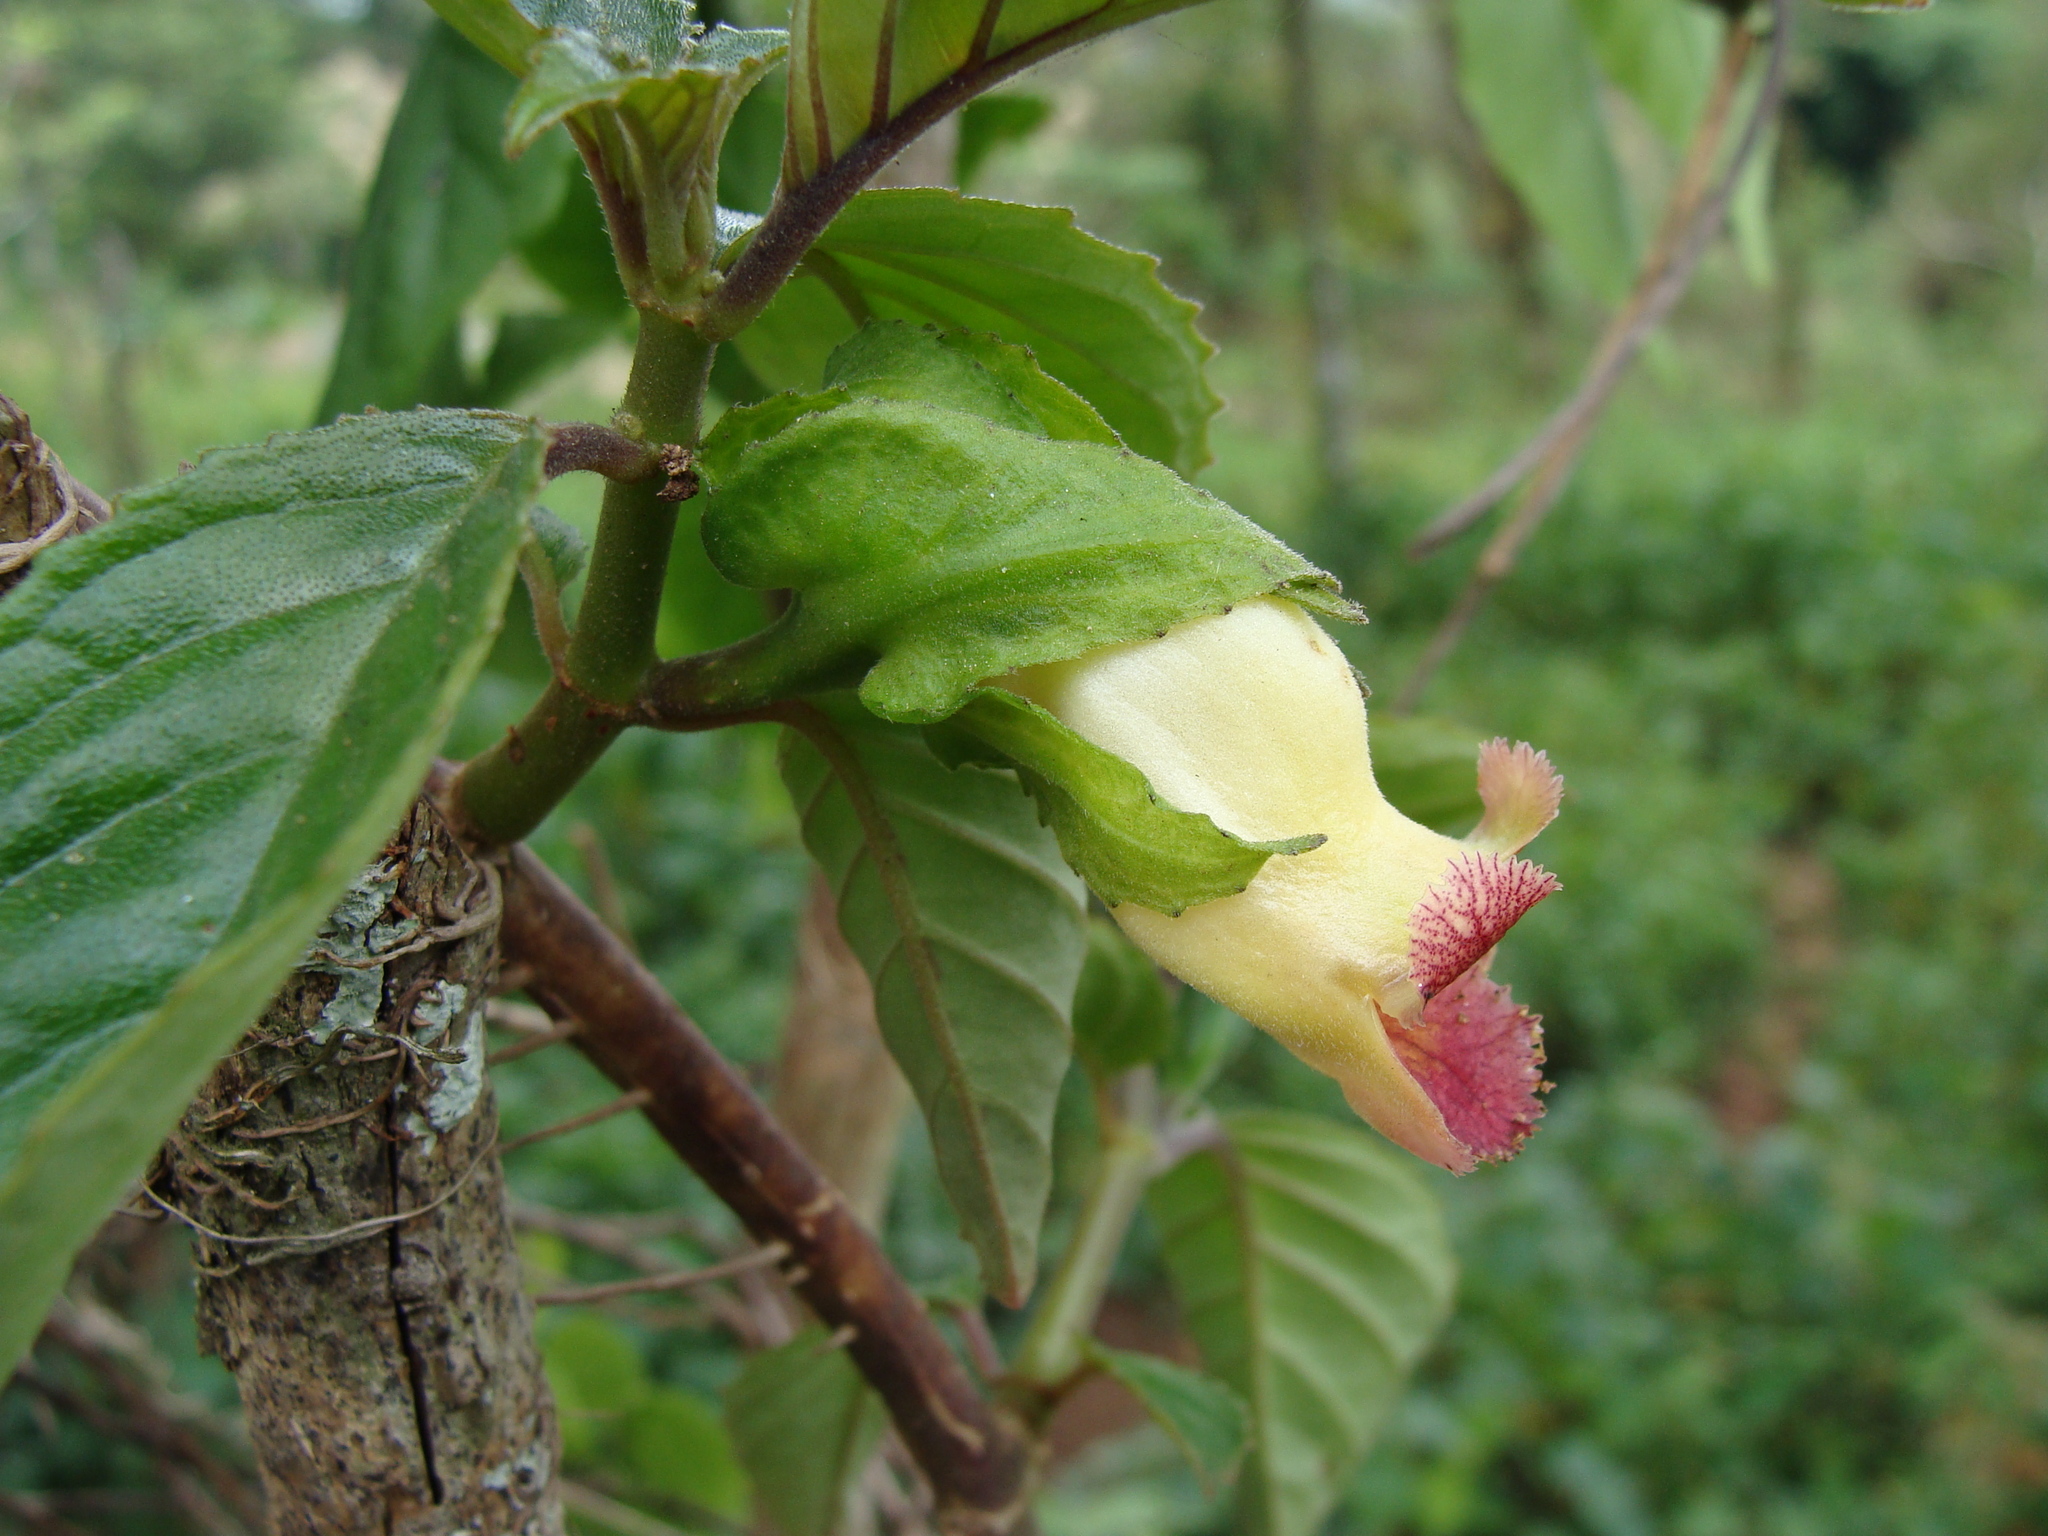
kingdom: Plantae
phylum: Tracheophyta
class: Magnoliopsida
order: Lamiales
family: Gesneriaceae
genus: Drymonia
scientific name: Drymonia serrulata
